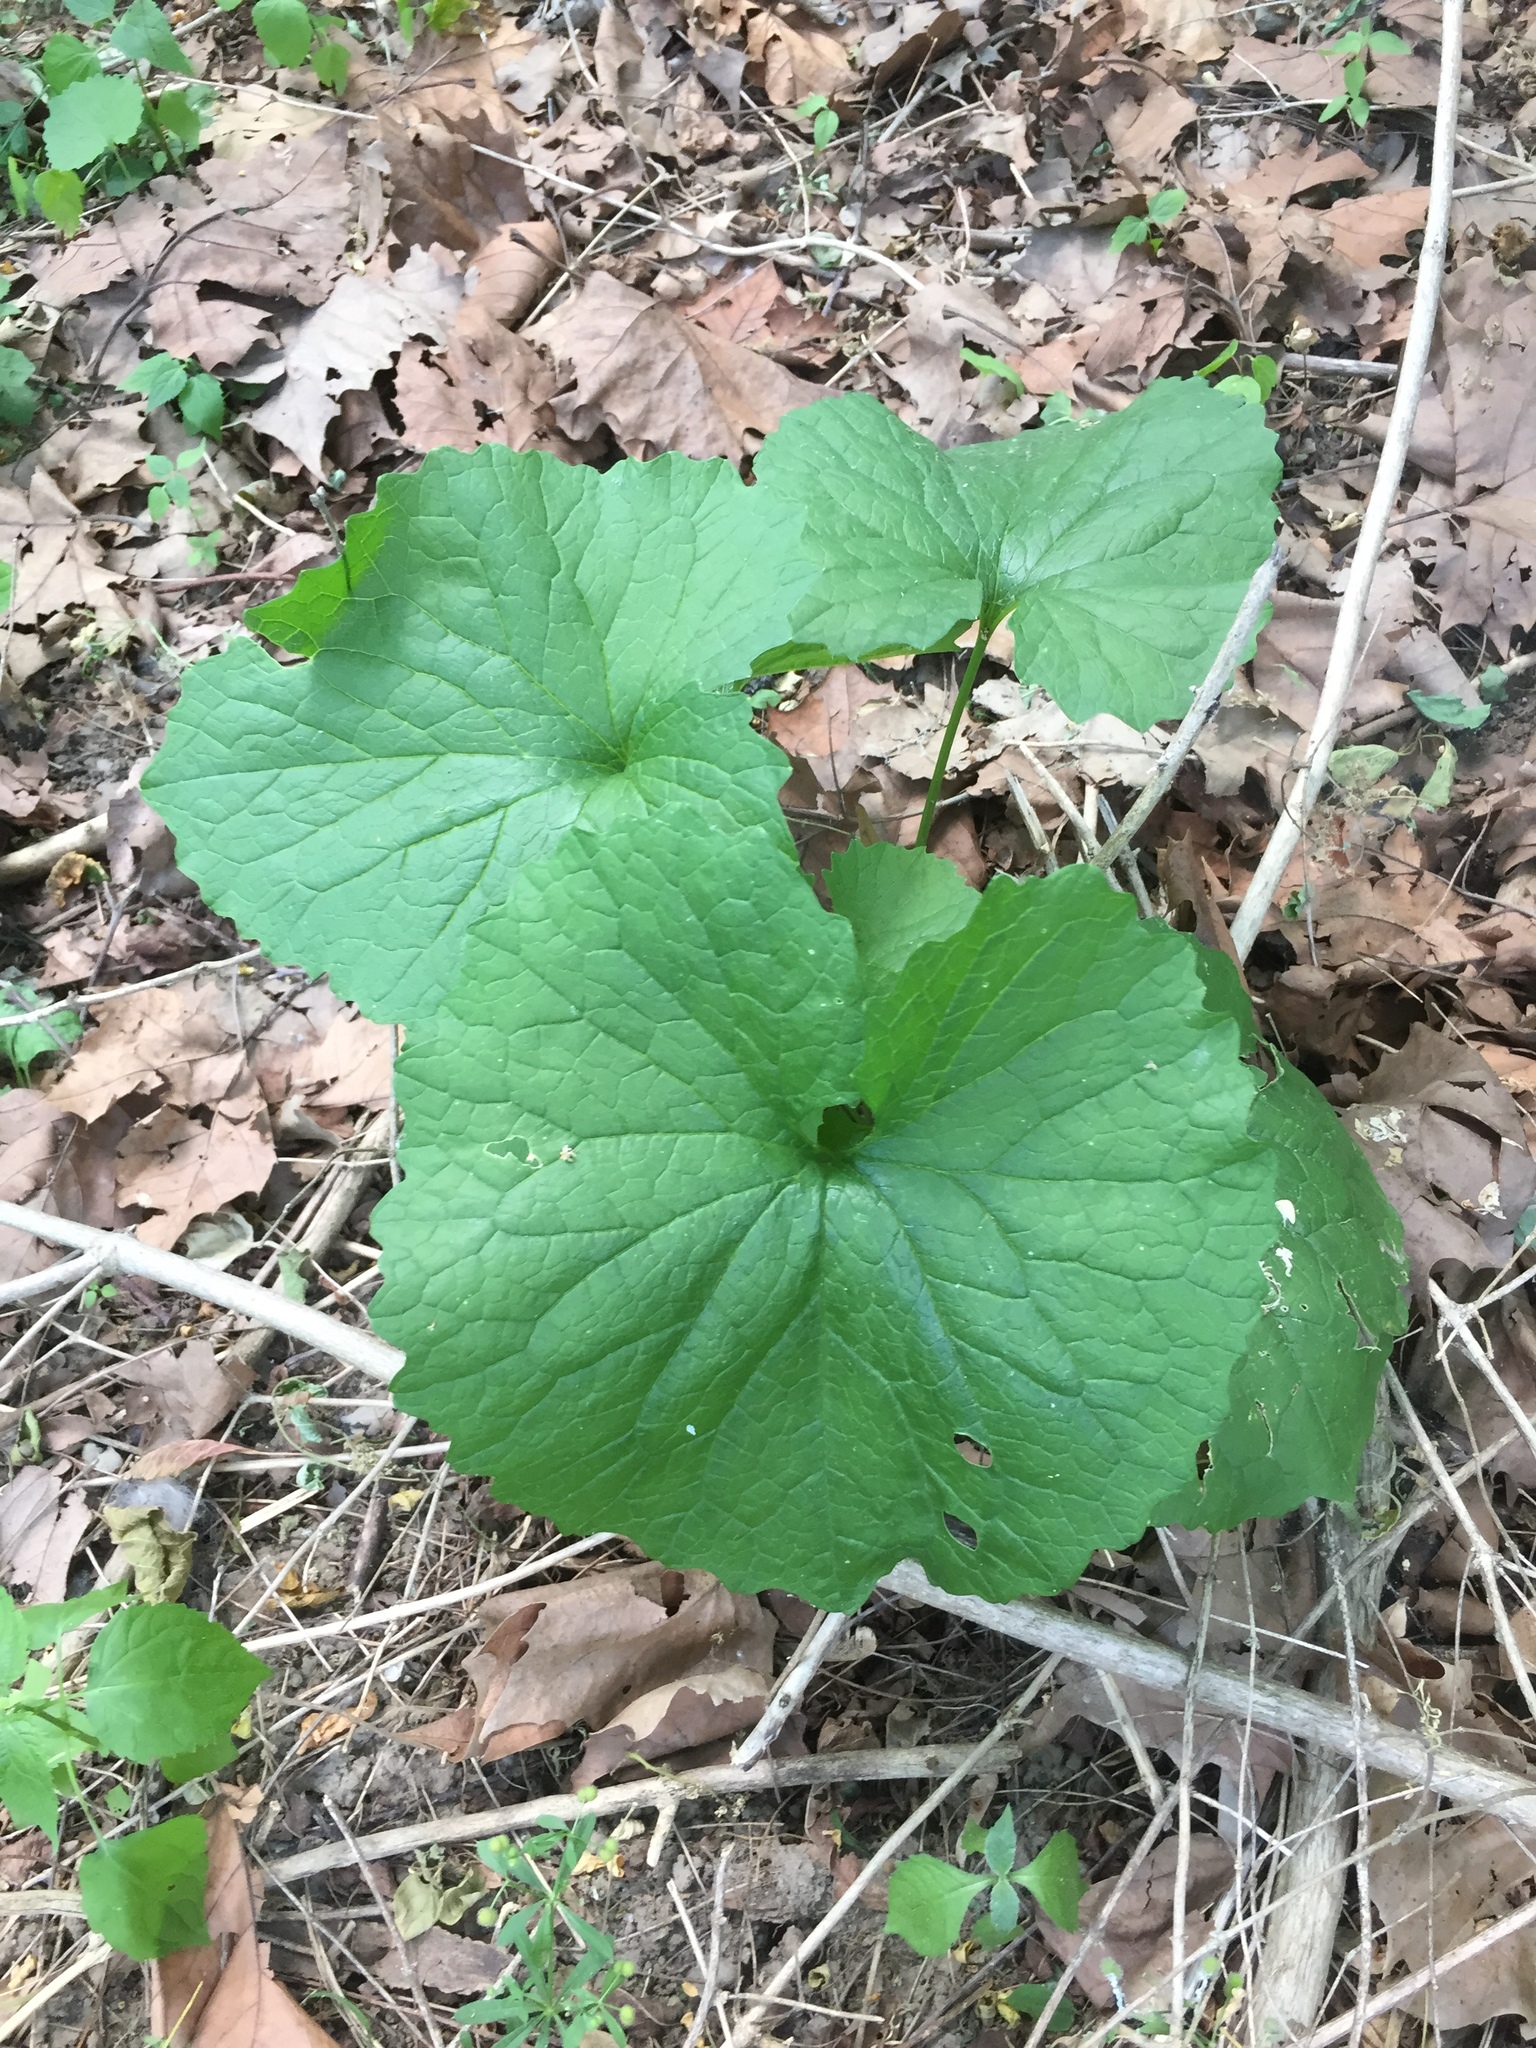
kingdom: Plantae
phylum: Tracheophyta
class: Magnoliopsida
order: Brassicales
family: Brassicaceae
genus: Alliaria
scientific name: Alliaria petiolata
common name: Garlic mustard
